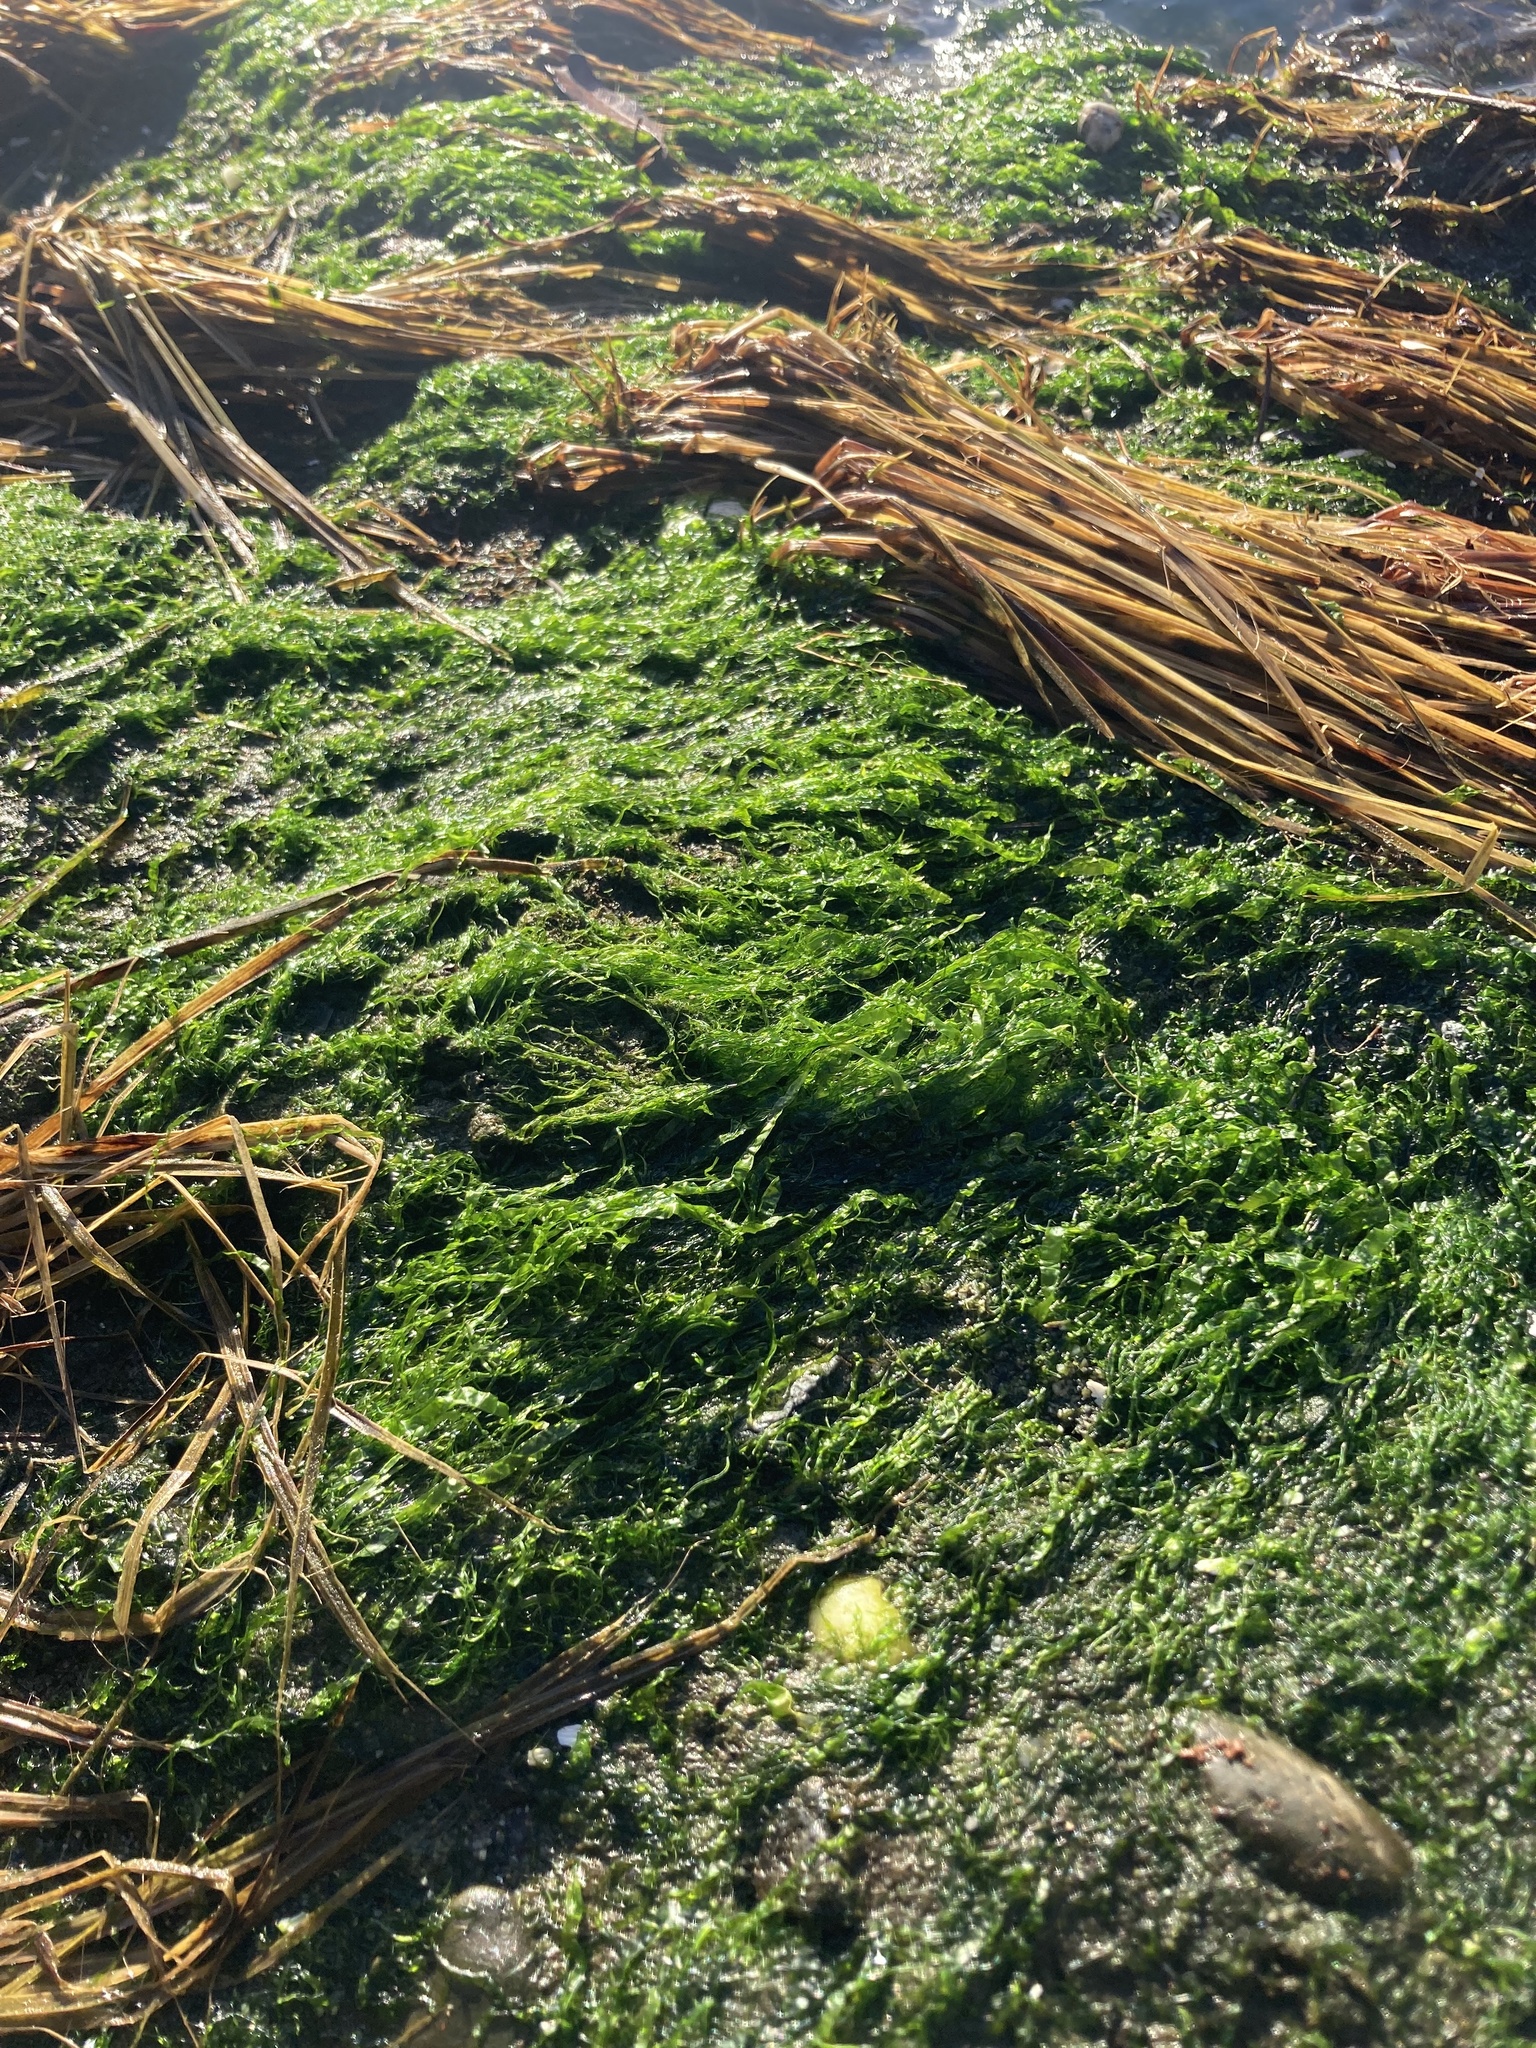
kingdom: Plantae
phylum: Chlorophyta
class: Ulvophyceae
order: Ulvales
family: Ulvaceae
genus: Ulva
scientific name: Ulva intestinalis
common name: Gut weed
